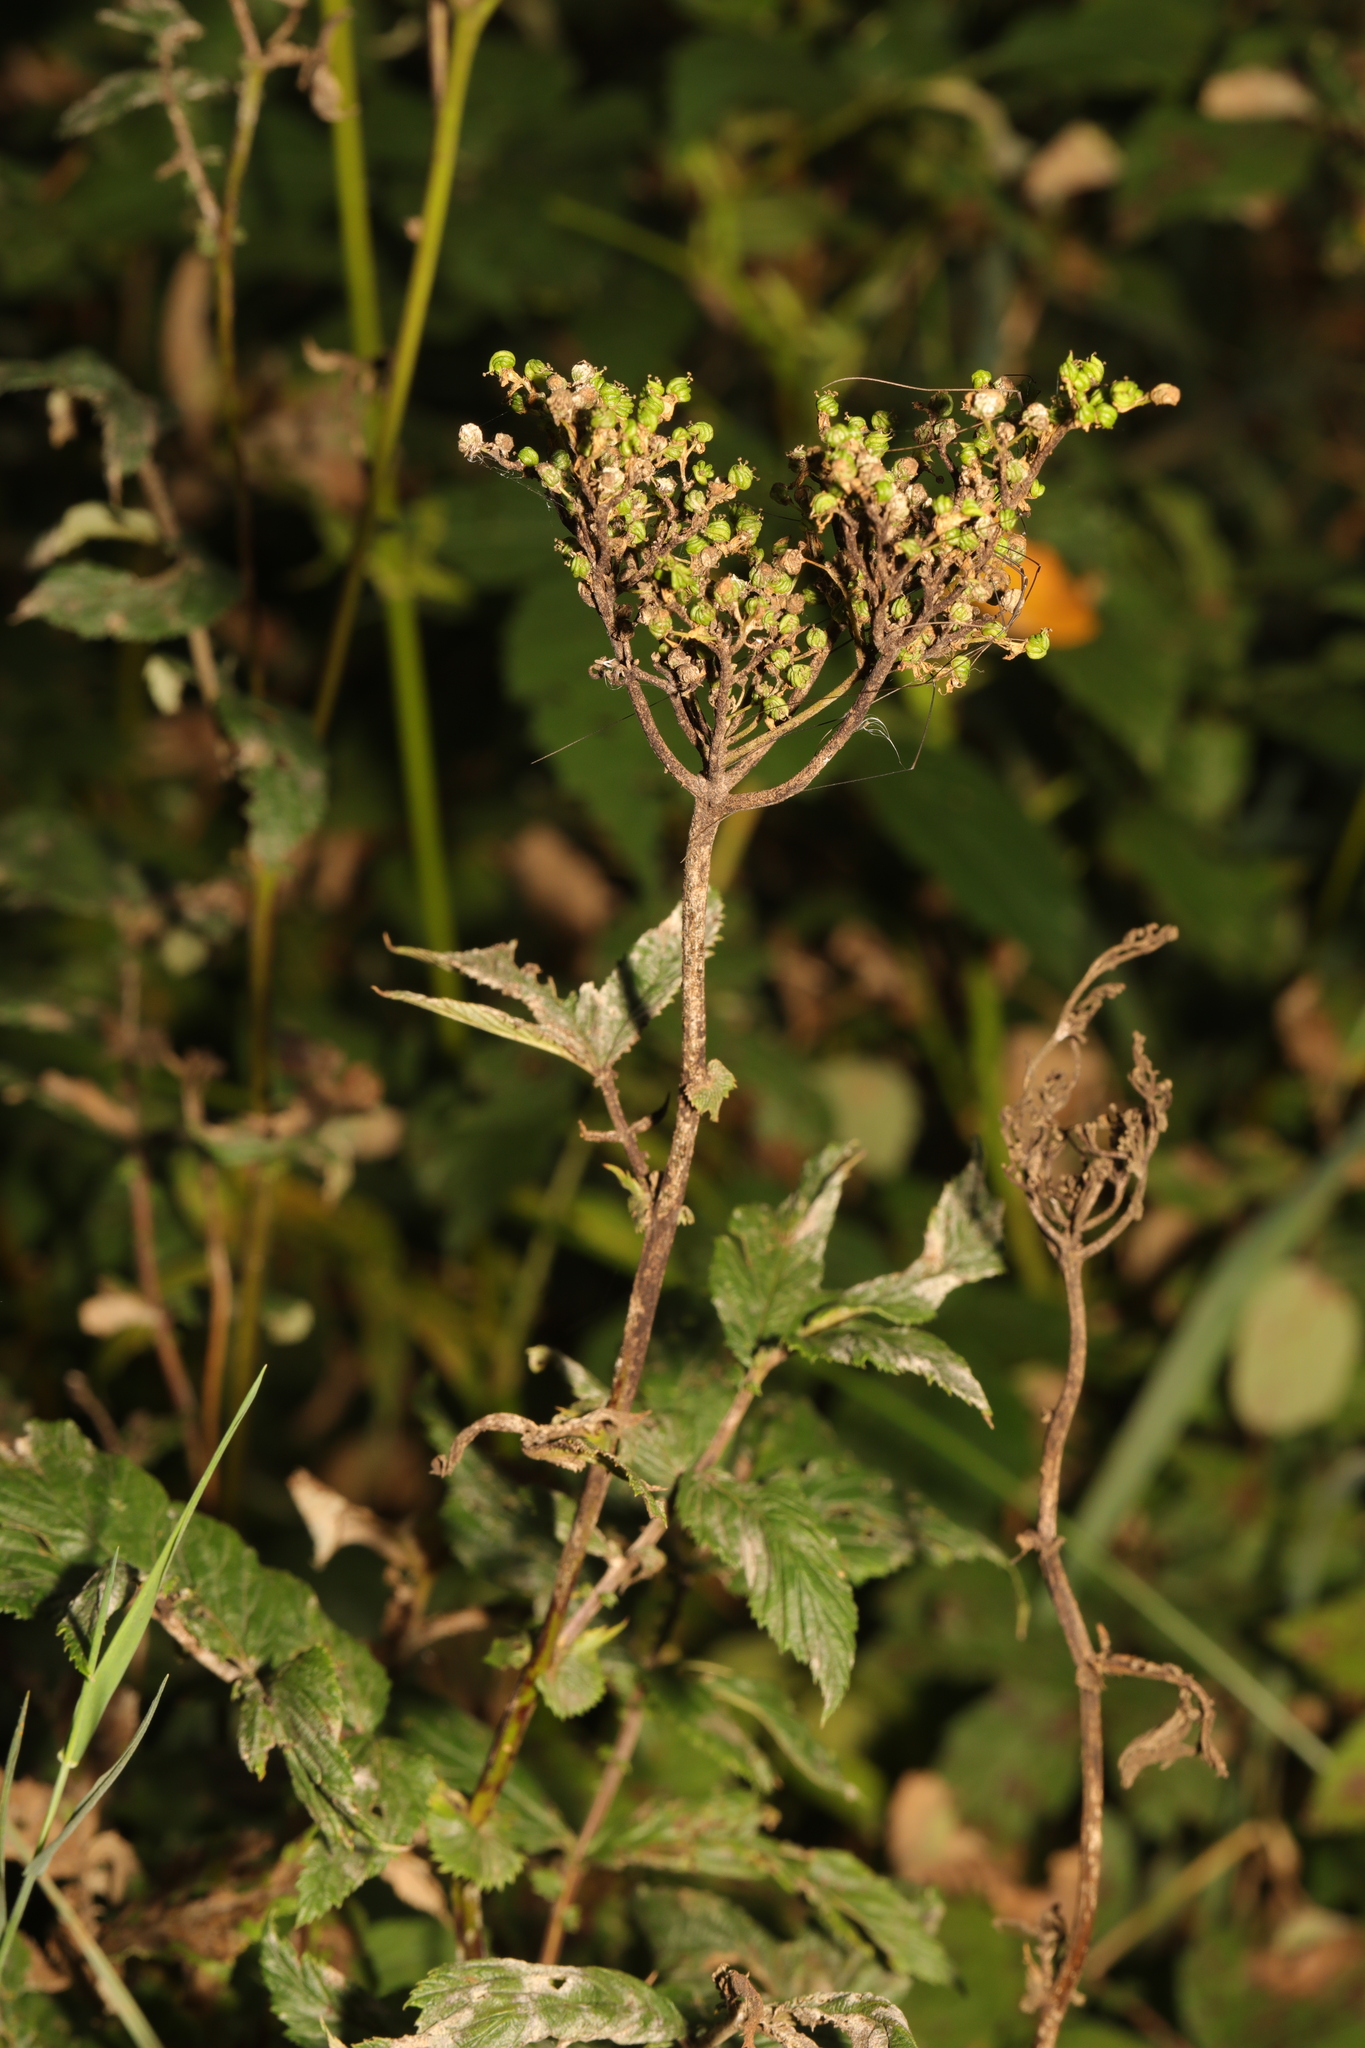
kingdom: Plantae
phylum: Tracheophyta
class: Magnoliopsida
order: Rosales
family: Rosaceae
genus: Filipendula
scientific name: Filipendula ulmaria
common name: Meadowsweet
